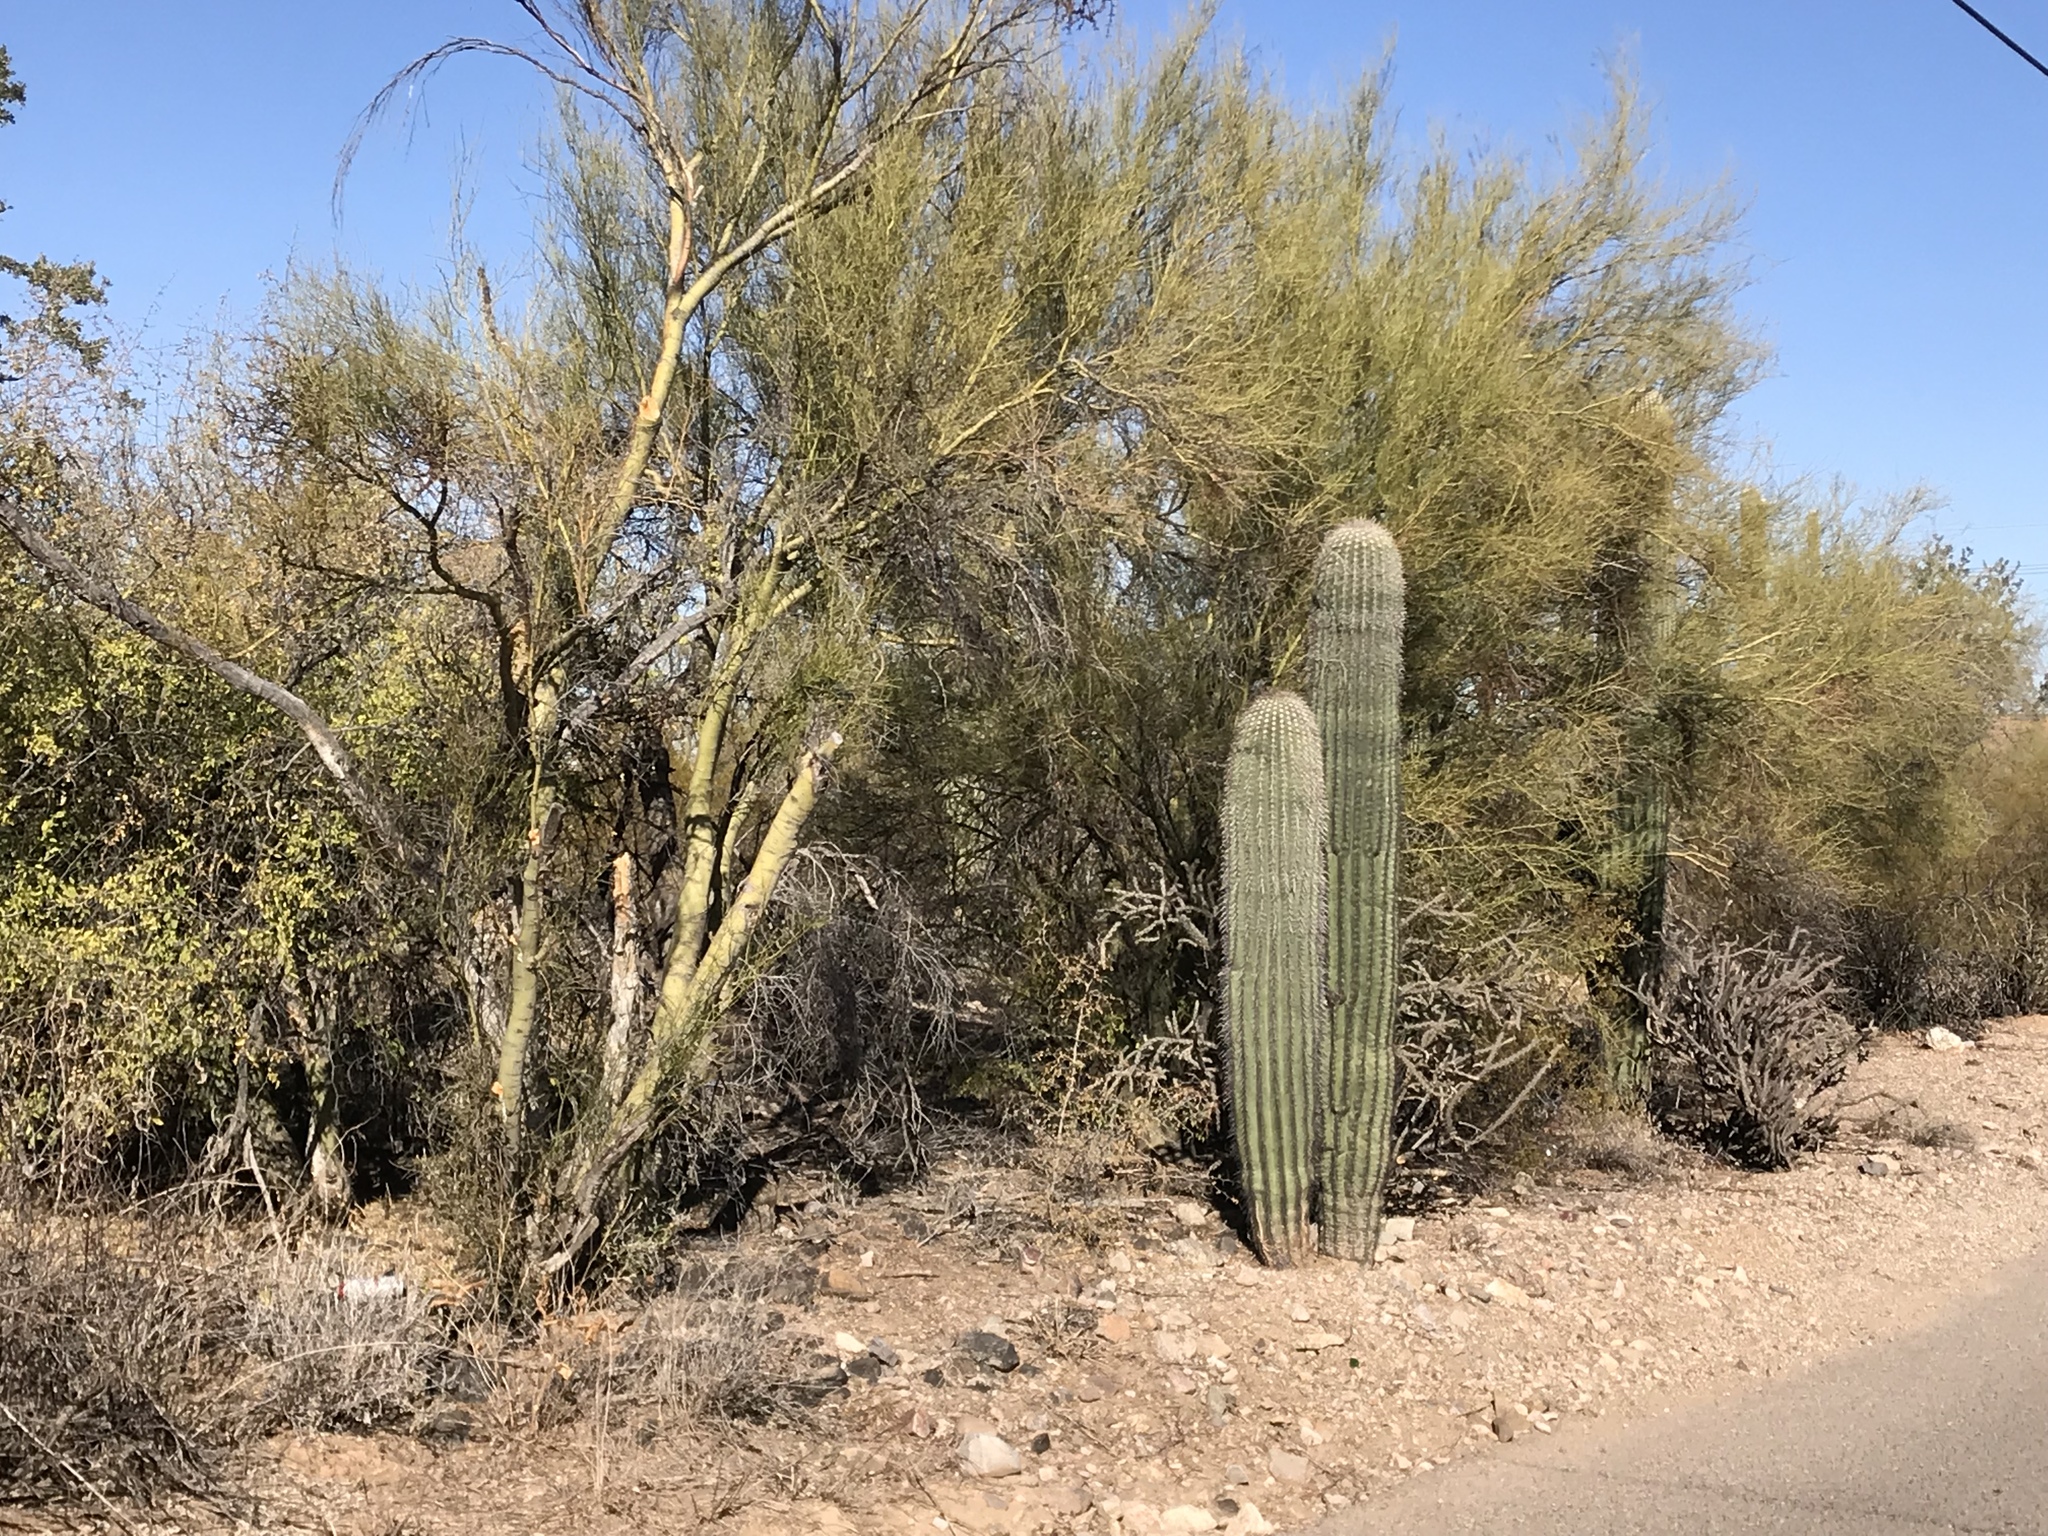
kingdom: Plantae
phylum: Tracheophyta
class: Magnoliopsida
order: Caryophyllales
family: Cactaceae
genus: Carnegiea
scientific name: Carnegiea gigantea
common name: Saguaro
